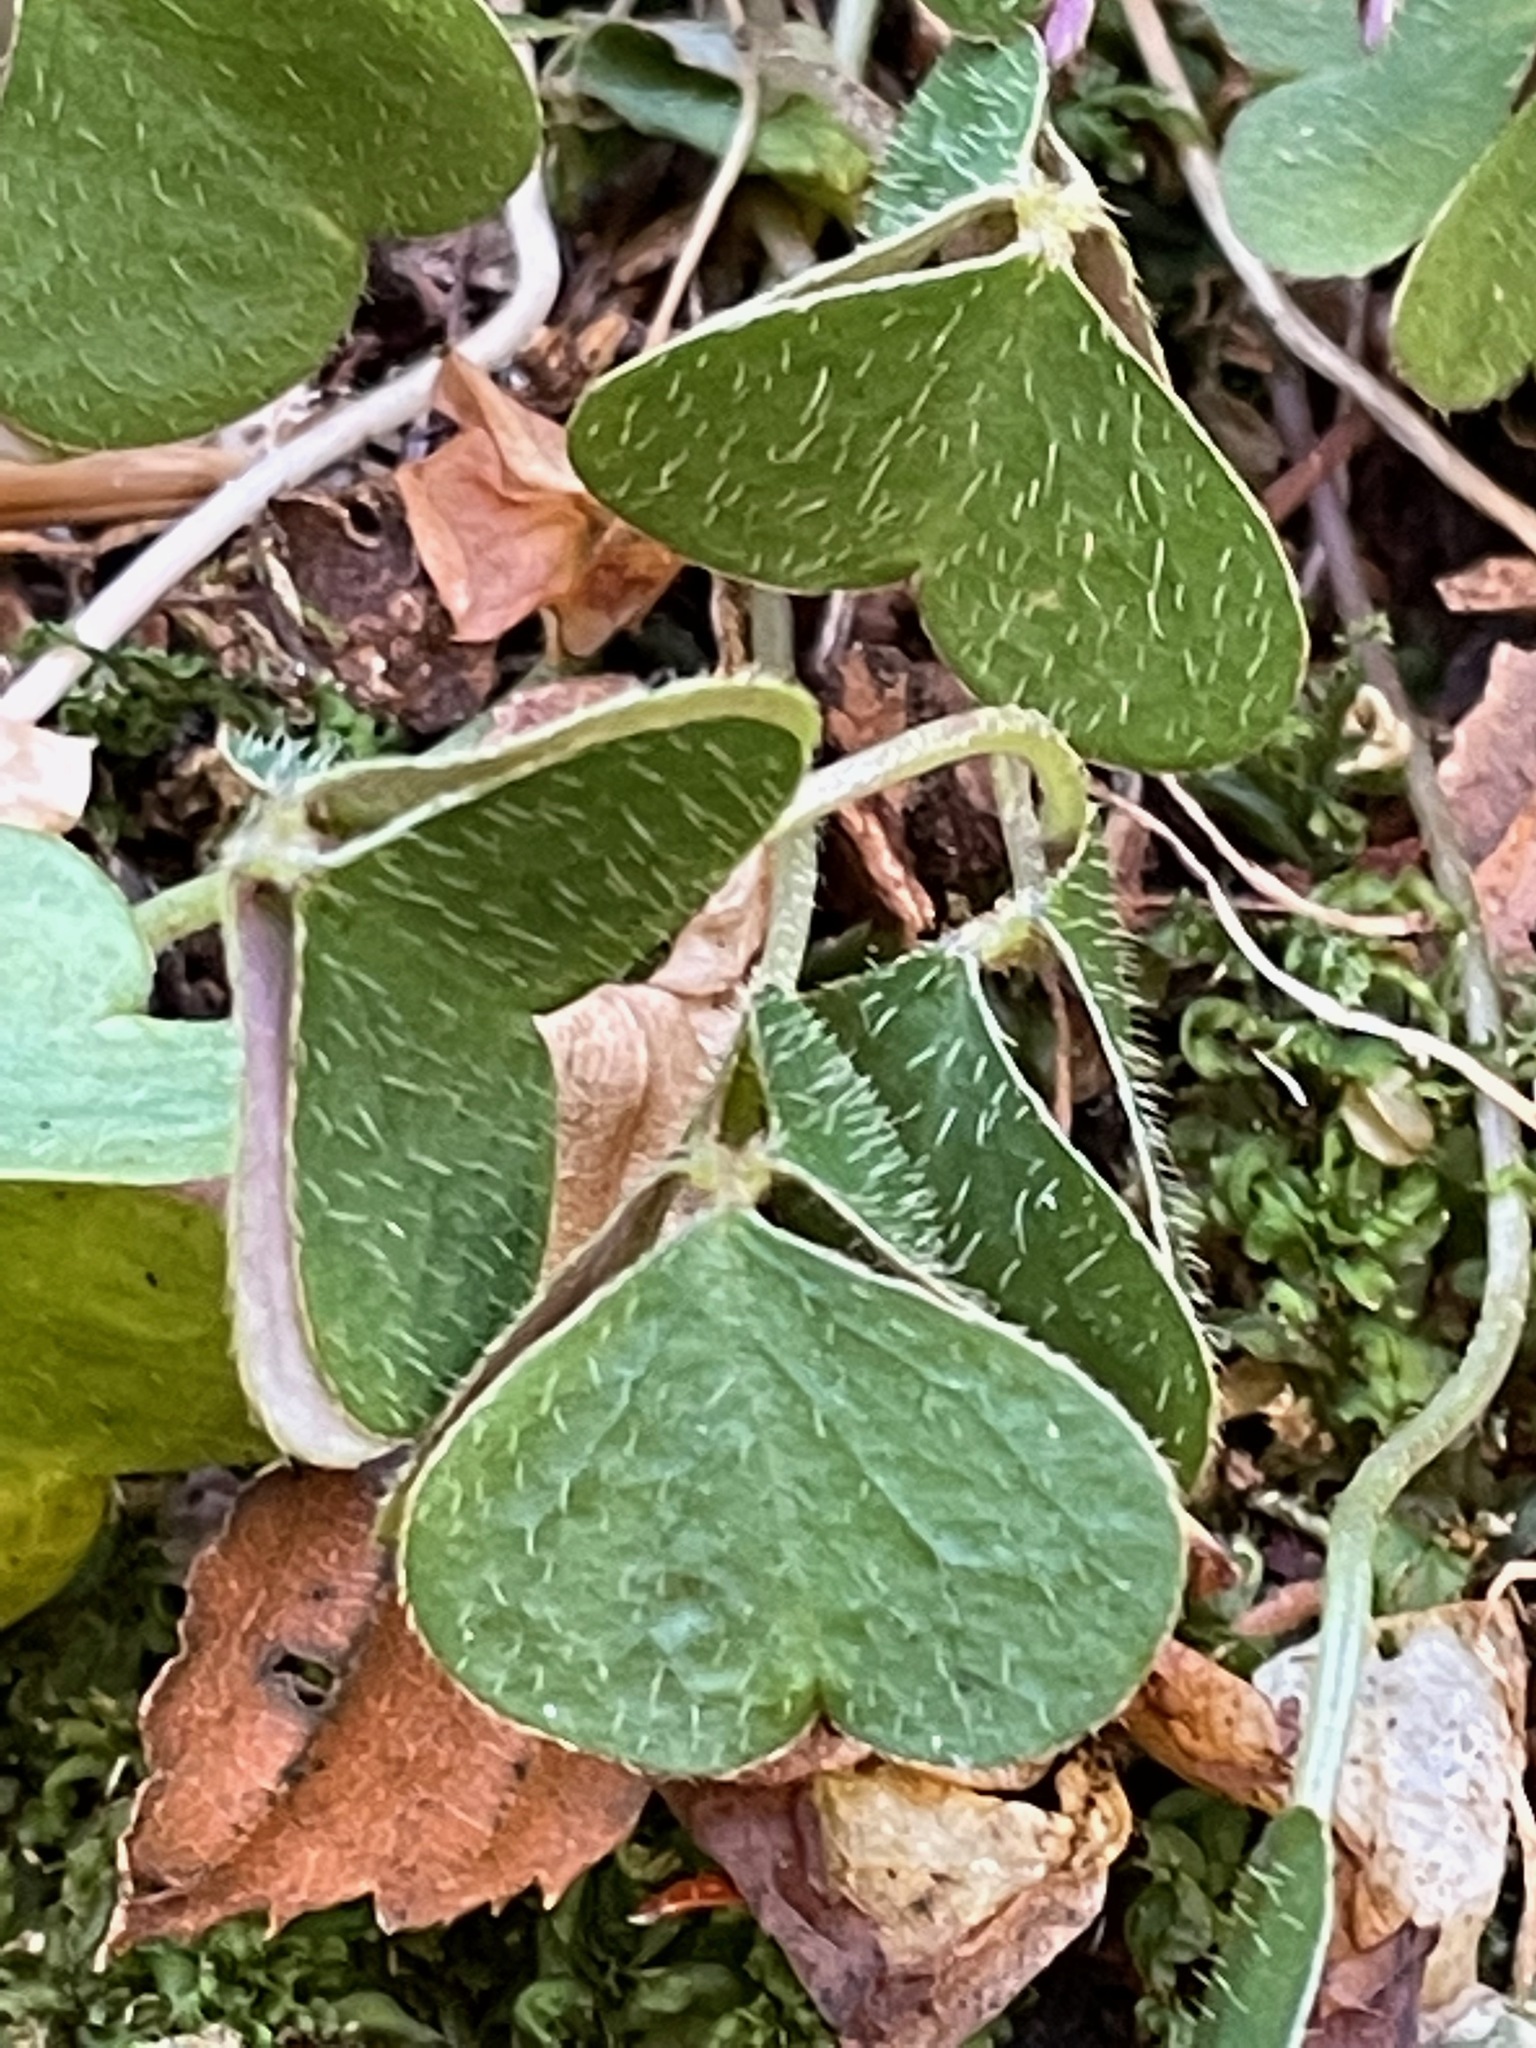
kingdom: Plantae
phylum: Tracheophyta
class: Magnoliopsida
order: Oxalidales
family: Oxalidaceae
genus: Oxalis
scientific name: Oxalis montana
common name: American wood-sorrel
